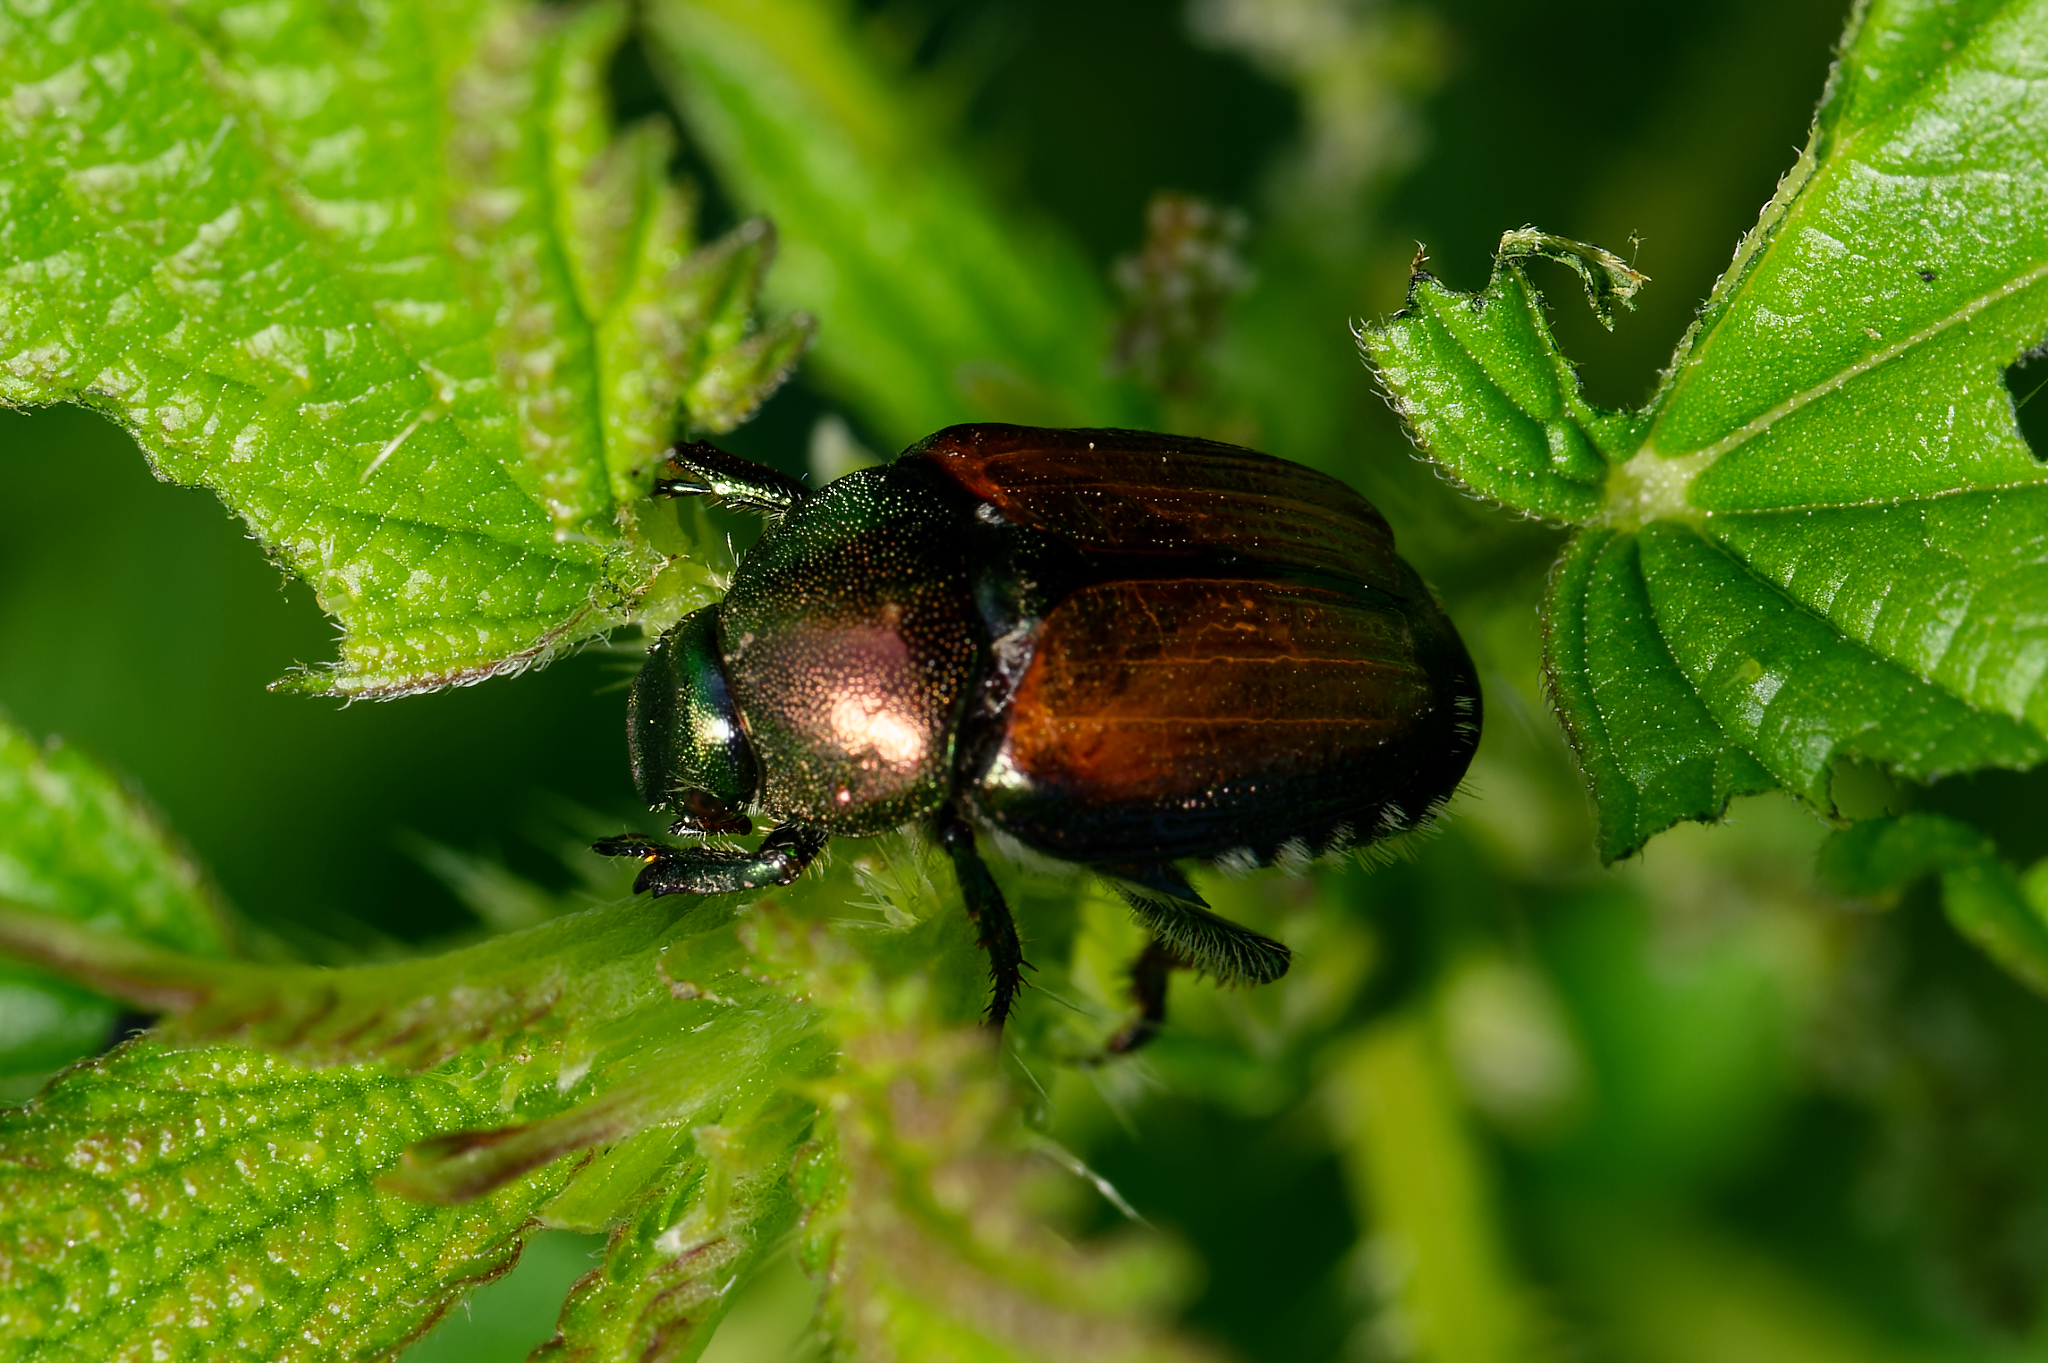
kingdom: Animalia
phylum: Arthropoda
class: Insecta
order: Coleoptera
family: Scarabaeidae
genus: Popillia
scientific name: Popillia japonica
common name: Japanese beetle
